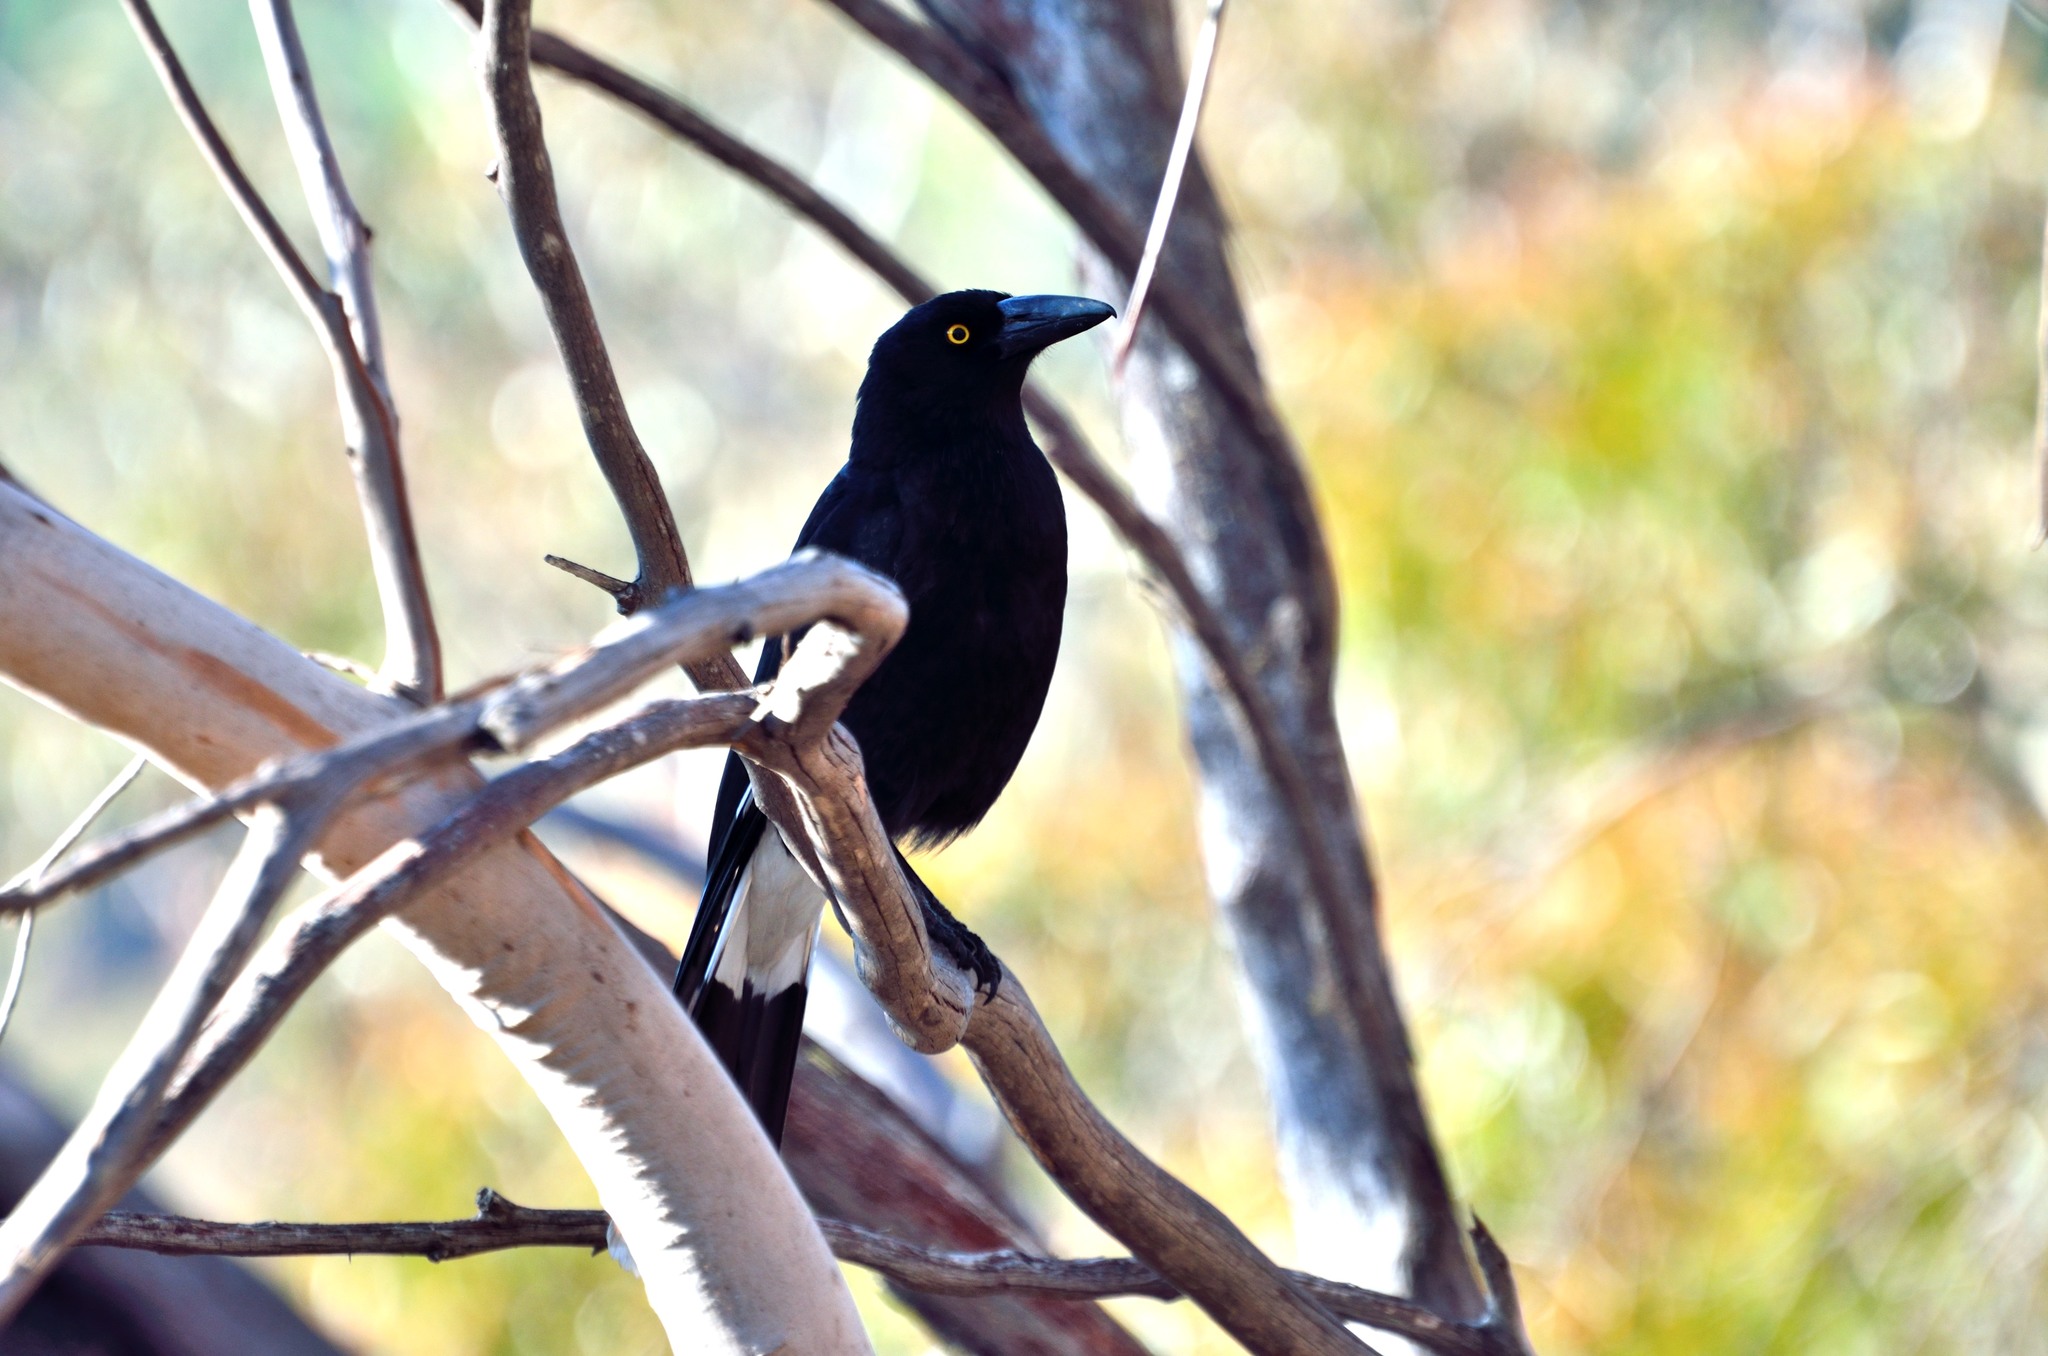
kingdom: Animalia
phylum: Chordata
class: Aves
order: Passeriformes
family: Cracticidae
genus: Strepera
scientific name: Strepera graculina
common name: Pied currawong
